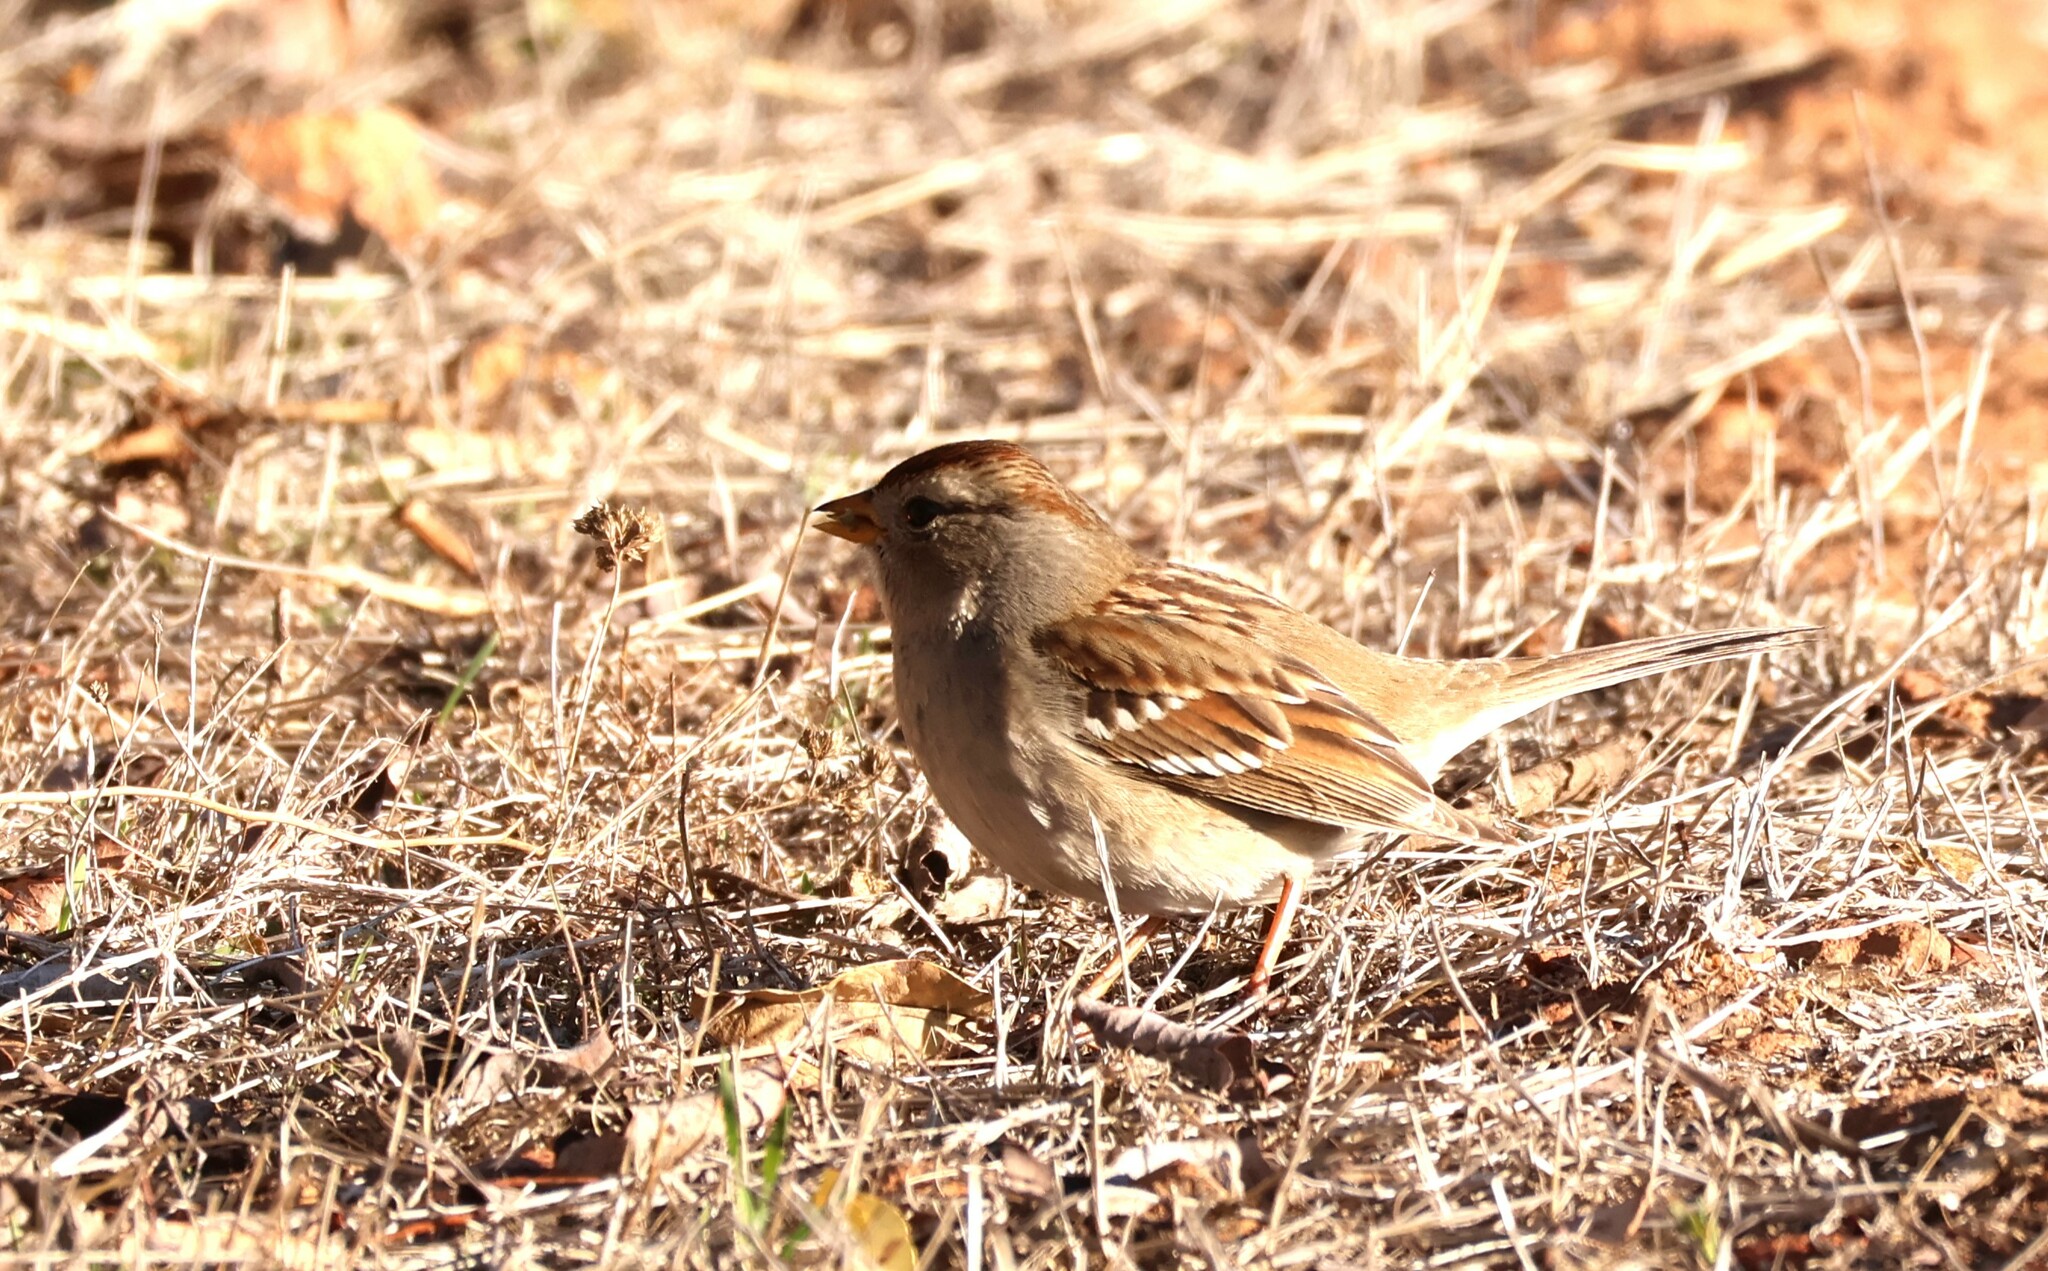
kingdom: Animalia
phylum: Chordata
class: Aves
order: Passeriformes
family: Passerellidae
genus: Zonotrichia
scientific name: Zonotrichia leucophrys
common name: White-crowned sparrow
